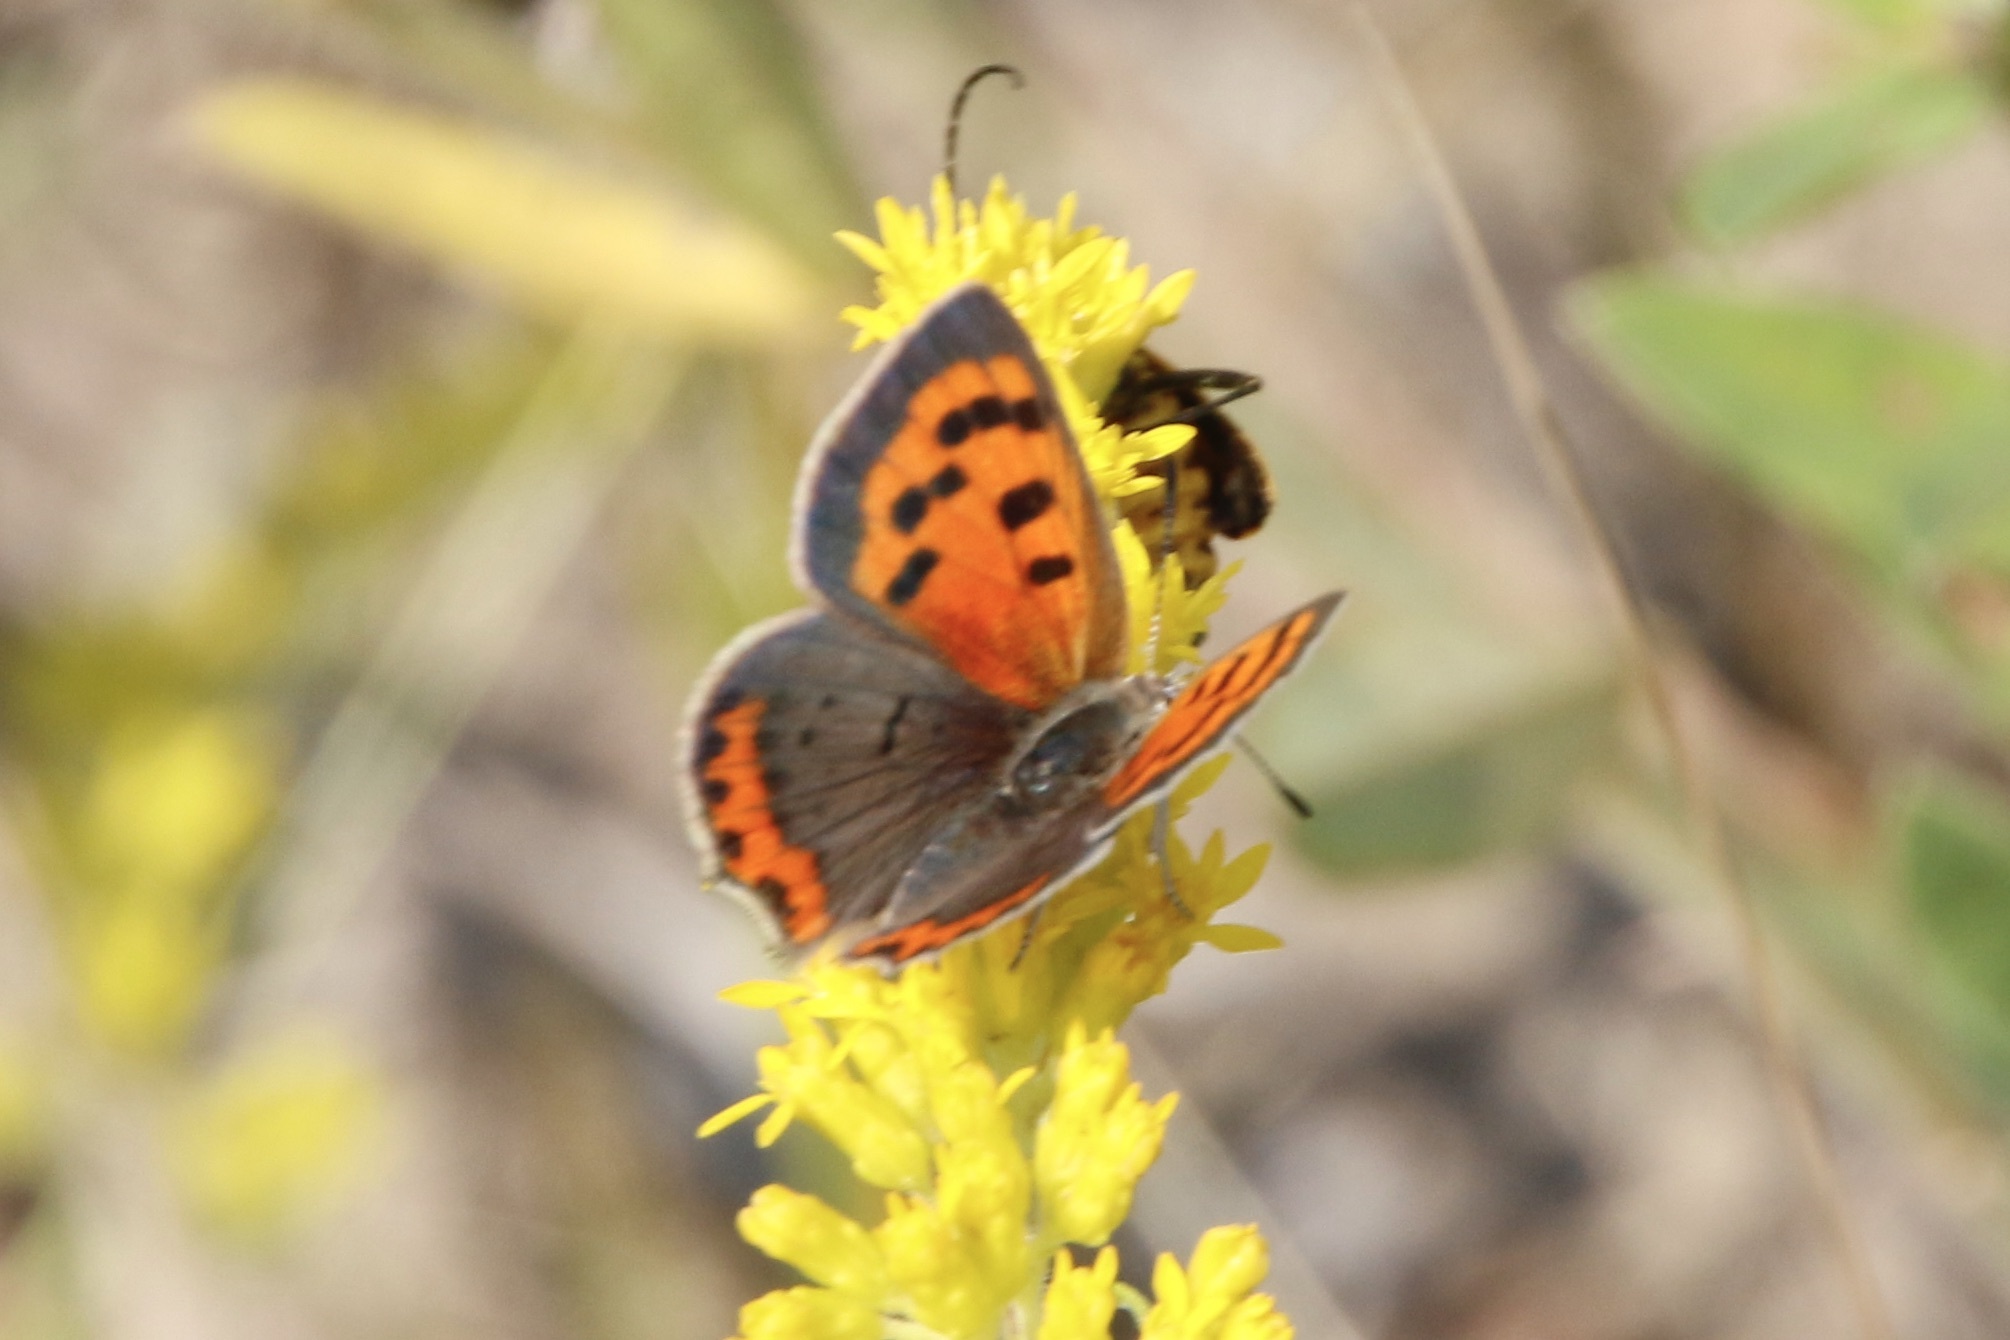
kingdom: Animalia
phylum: Arthropoda
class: Insecta
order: Lepidoptera
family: Lycaenidae
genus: Lycaena
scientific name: Lycaena hypophlaeas
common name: American copper
